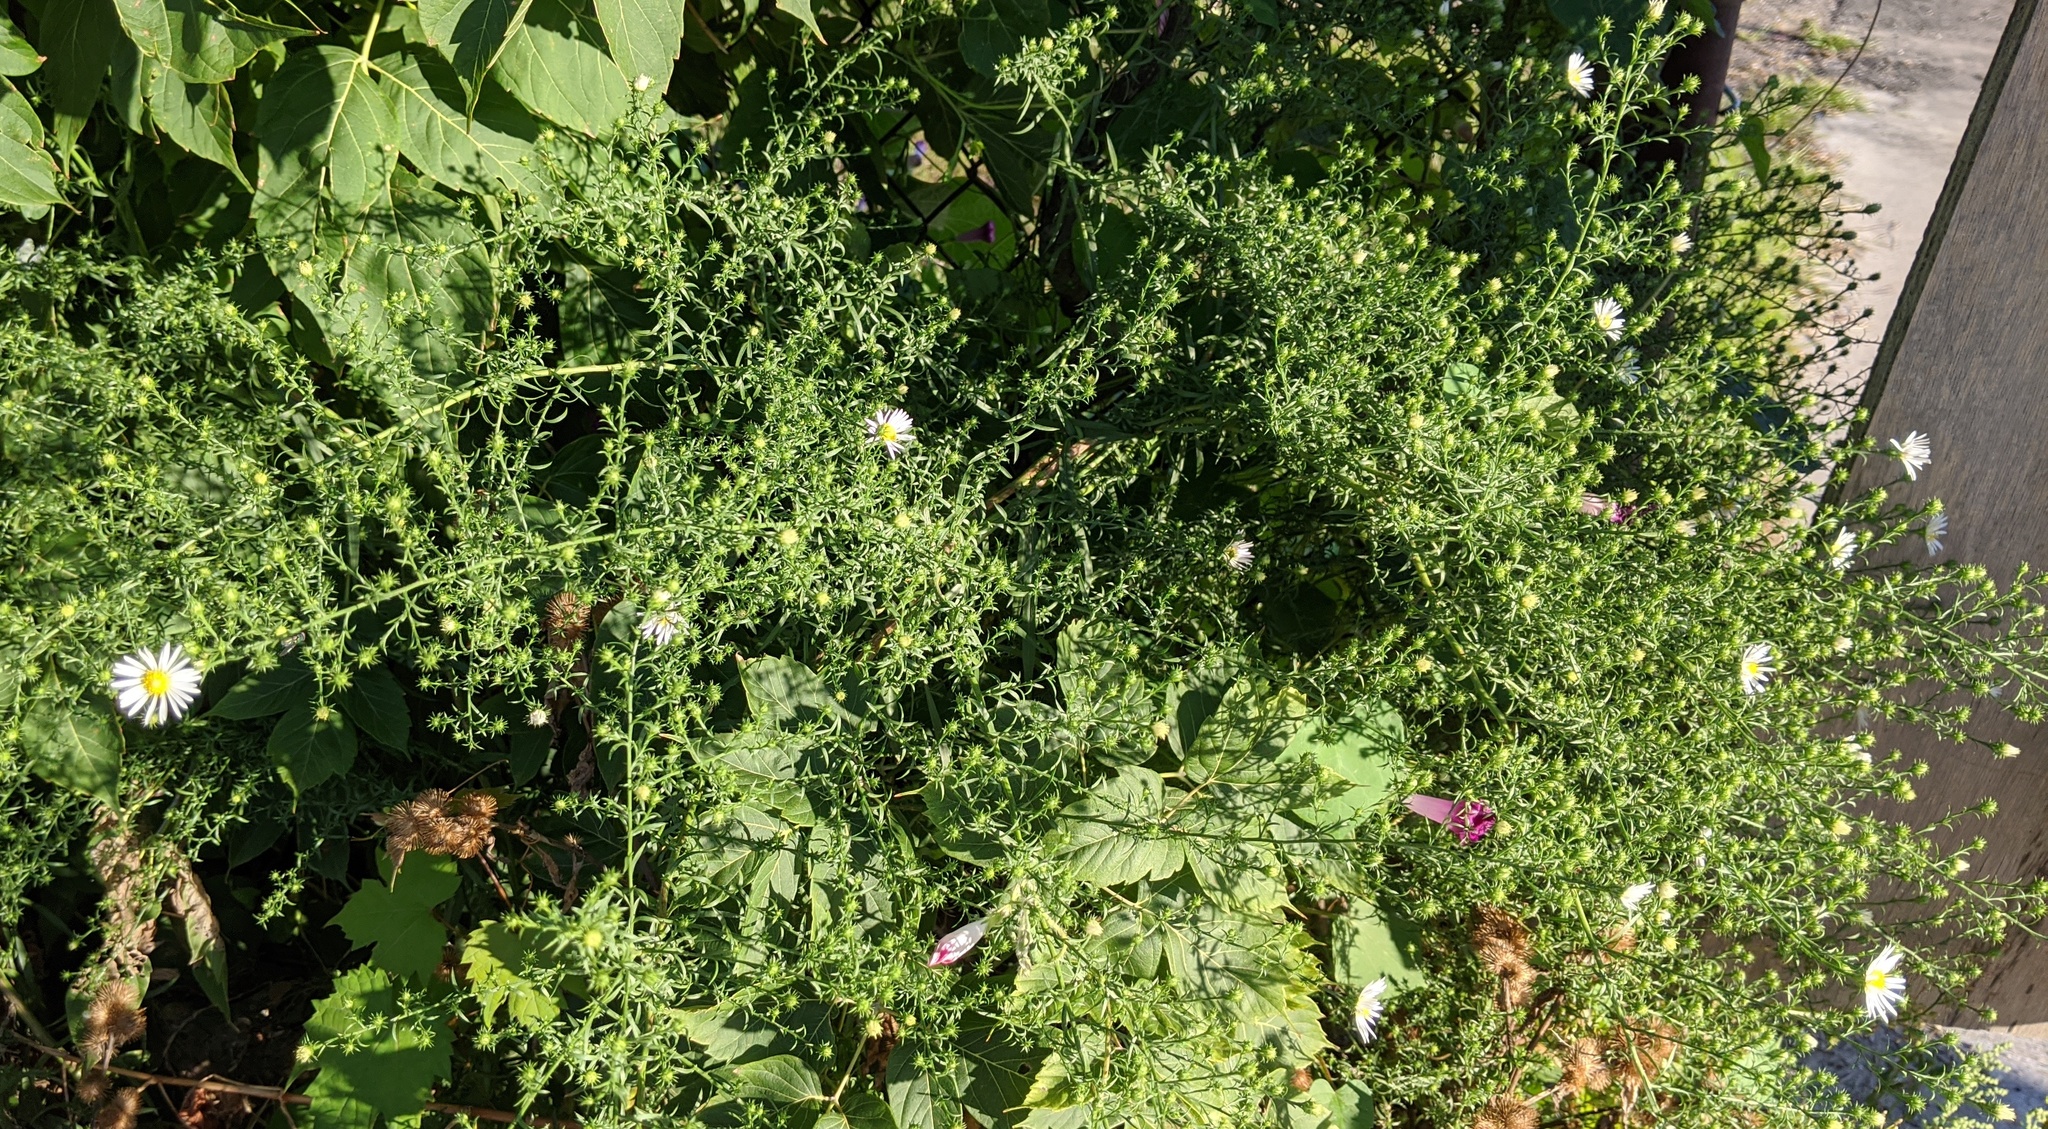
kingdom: Plantae
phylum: Tracheophyta
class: Magnoliopsida
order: Asterales
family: Asteraceae
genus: Symphyotrichum
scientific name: Symphyotrichum pilosum
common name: Awl aster
